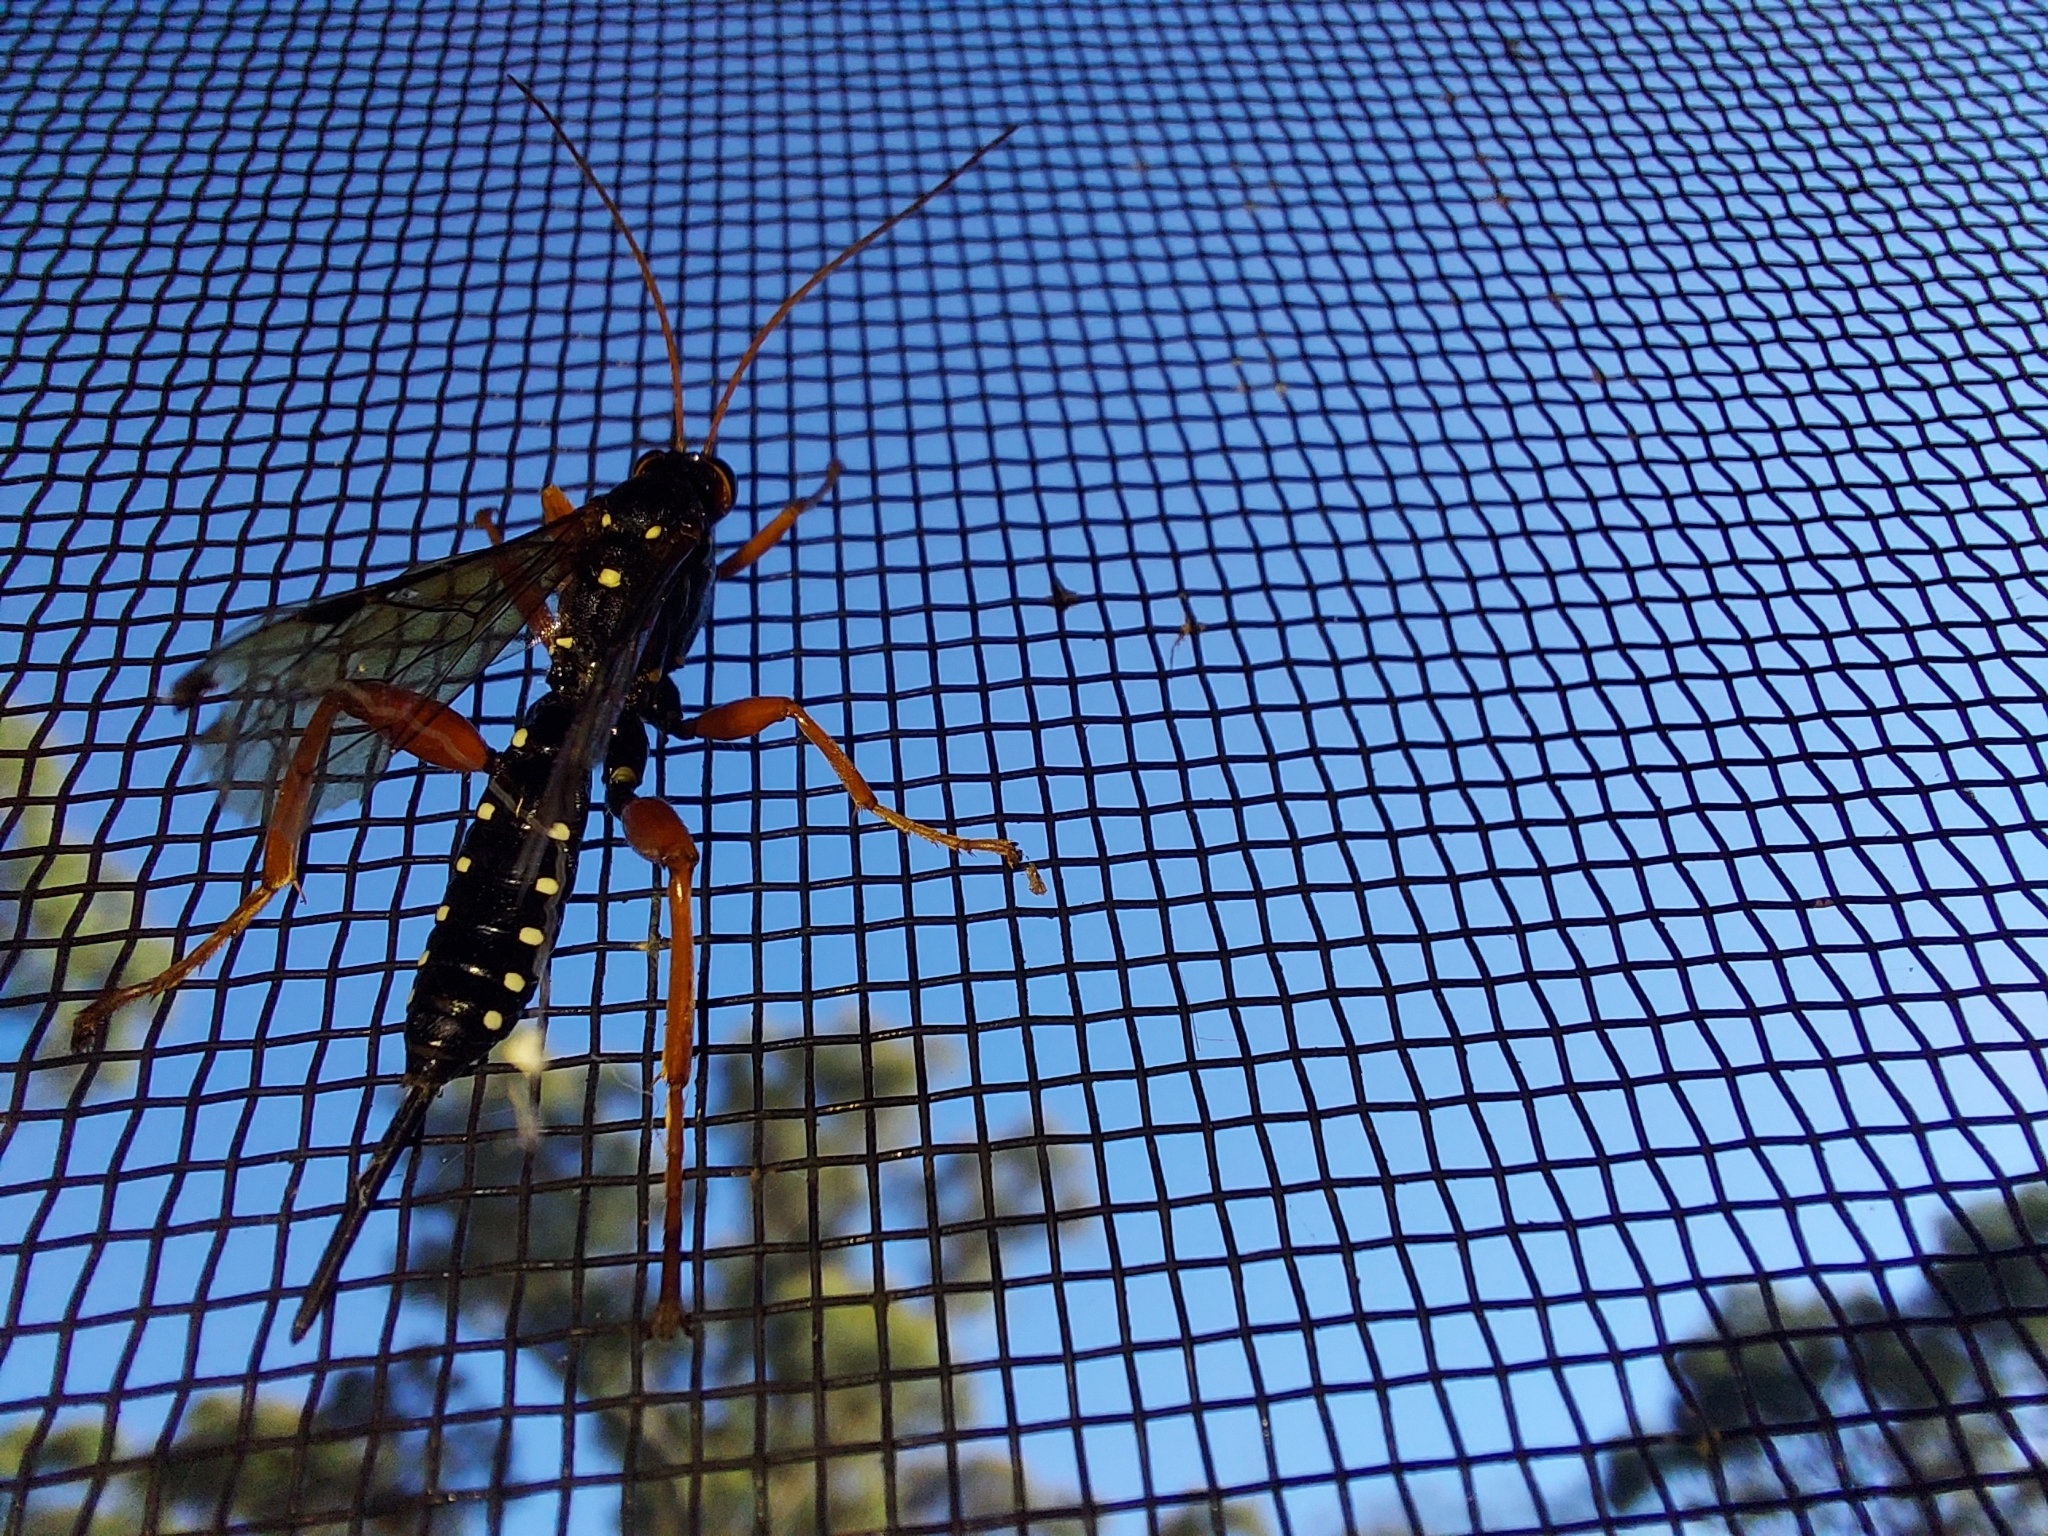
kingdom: Animalia
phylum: Arthropoda
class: Insecta
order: Hymenoptera
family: Ichneumonidae
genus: Echthromorpha
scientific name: Echthromorpha intricatoria
